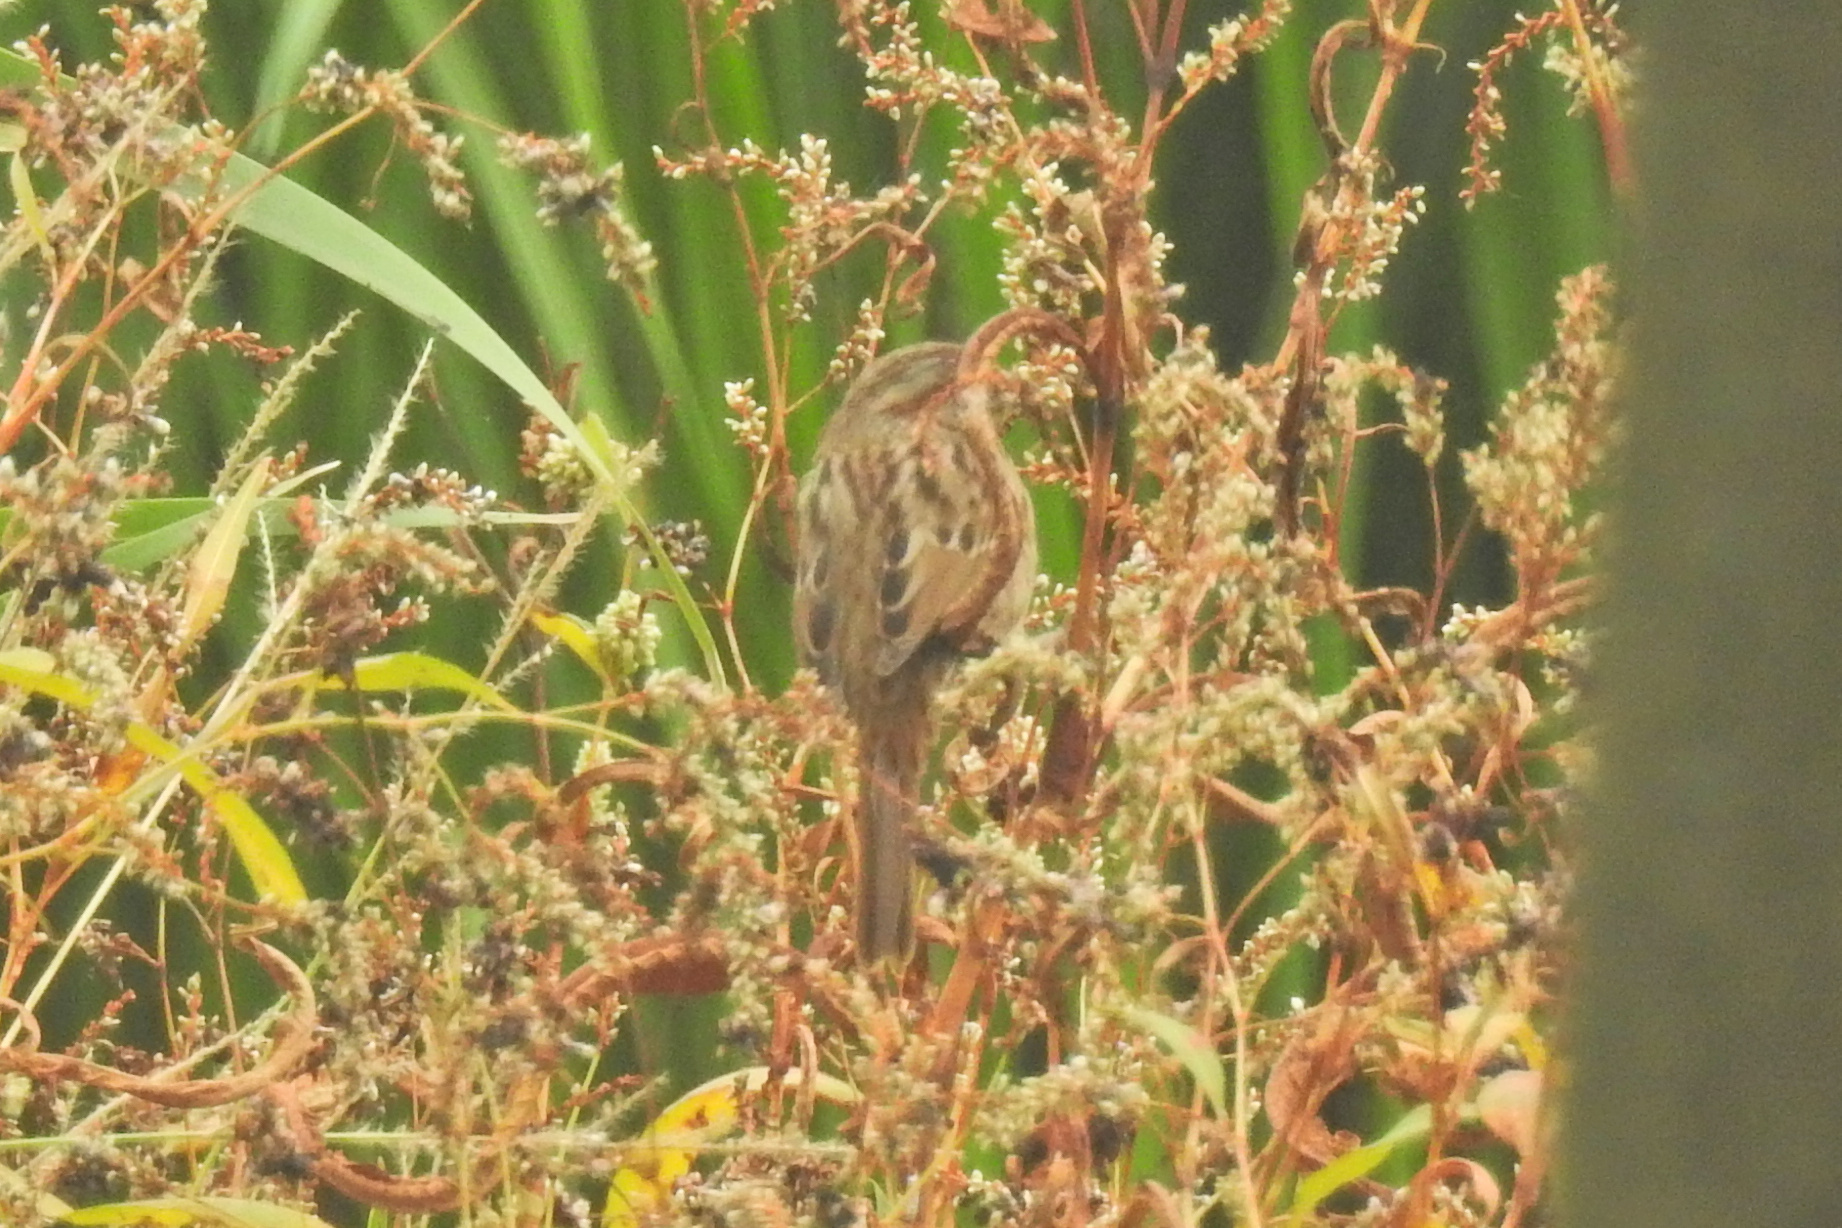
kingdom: Animalia
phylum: Chordata
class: Aves
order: Passeriformes
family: Passerellidae
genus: Melospiza
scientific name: Melospiza melodia
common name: Song sparrow
